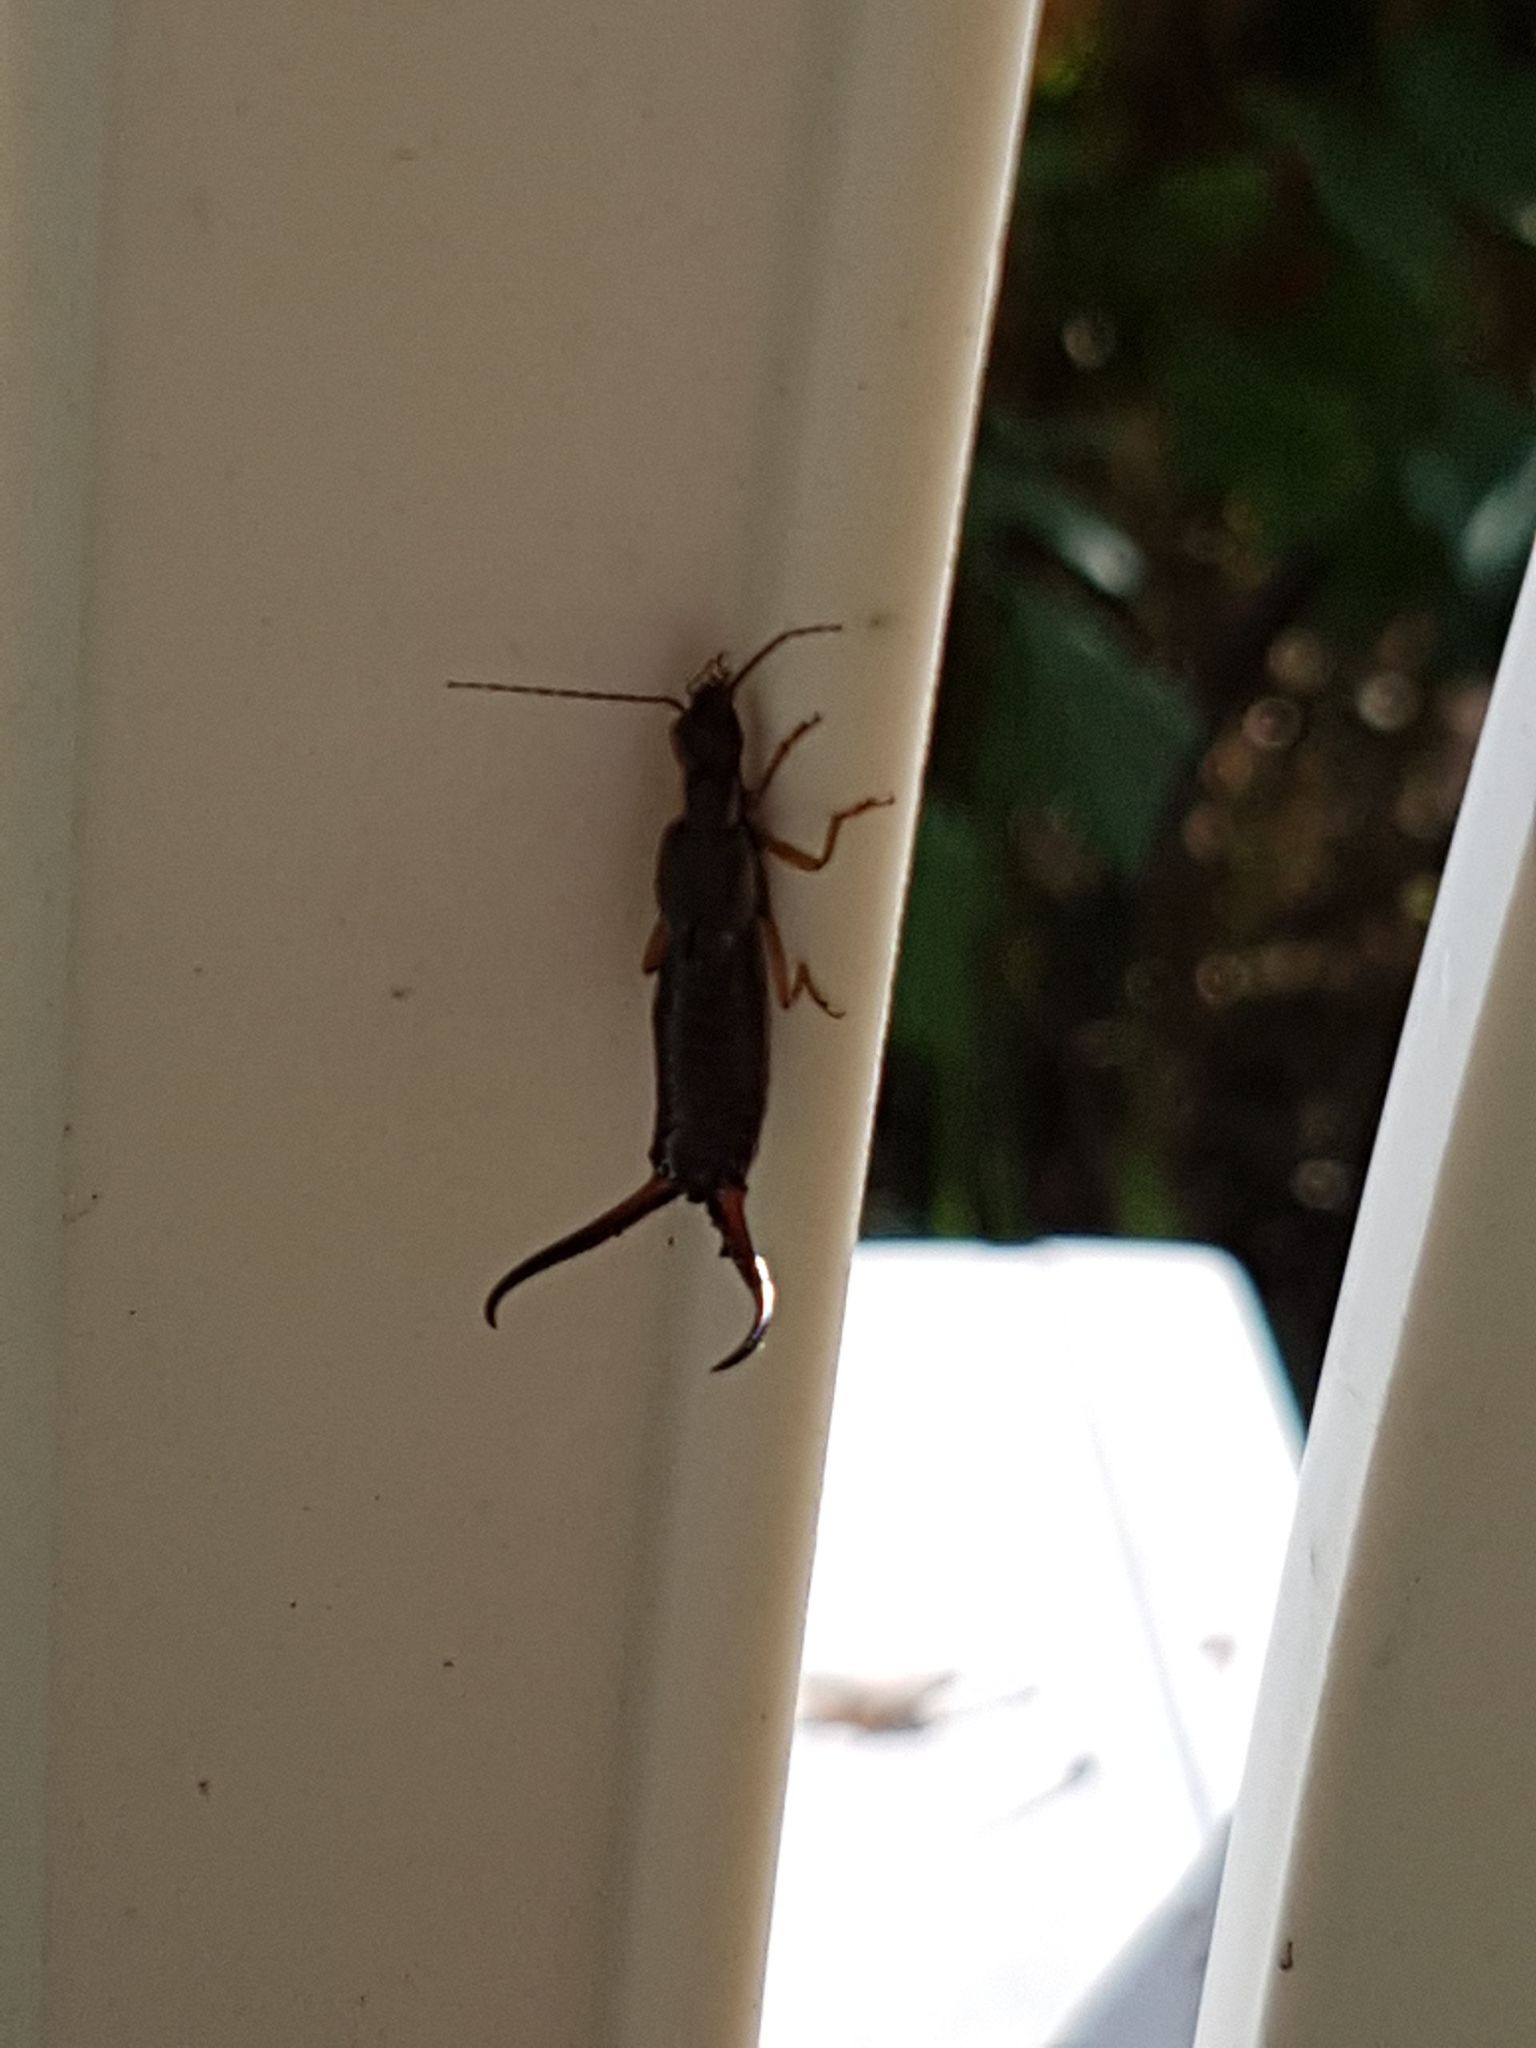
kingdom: Animalia
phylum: Arthropoda
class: Insecta
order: Dermaptera
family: Forficulidae
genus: Forficula
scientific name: Forficula
